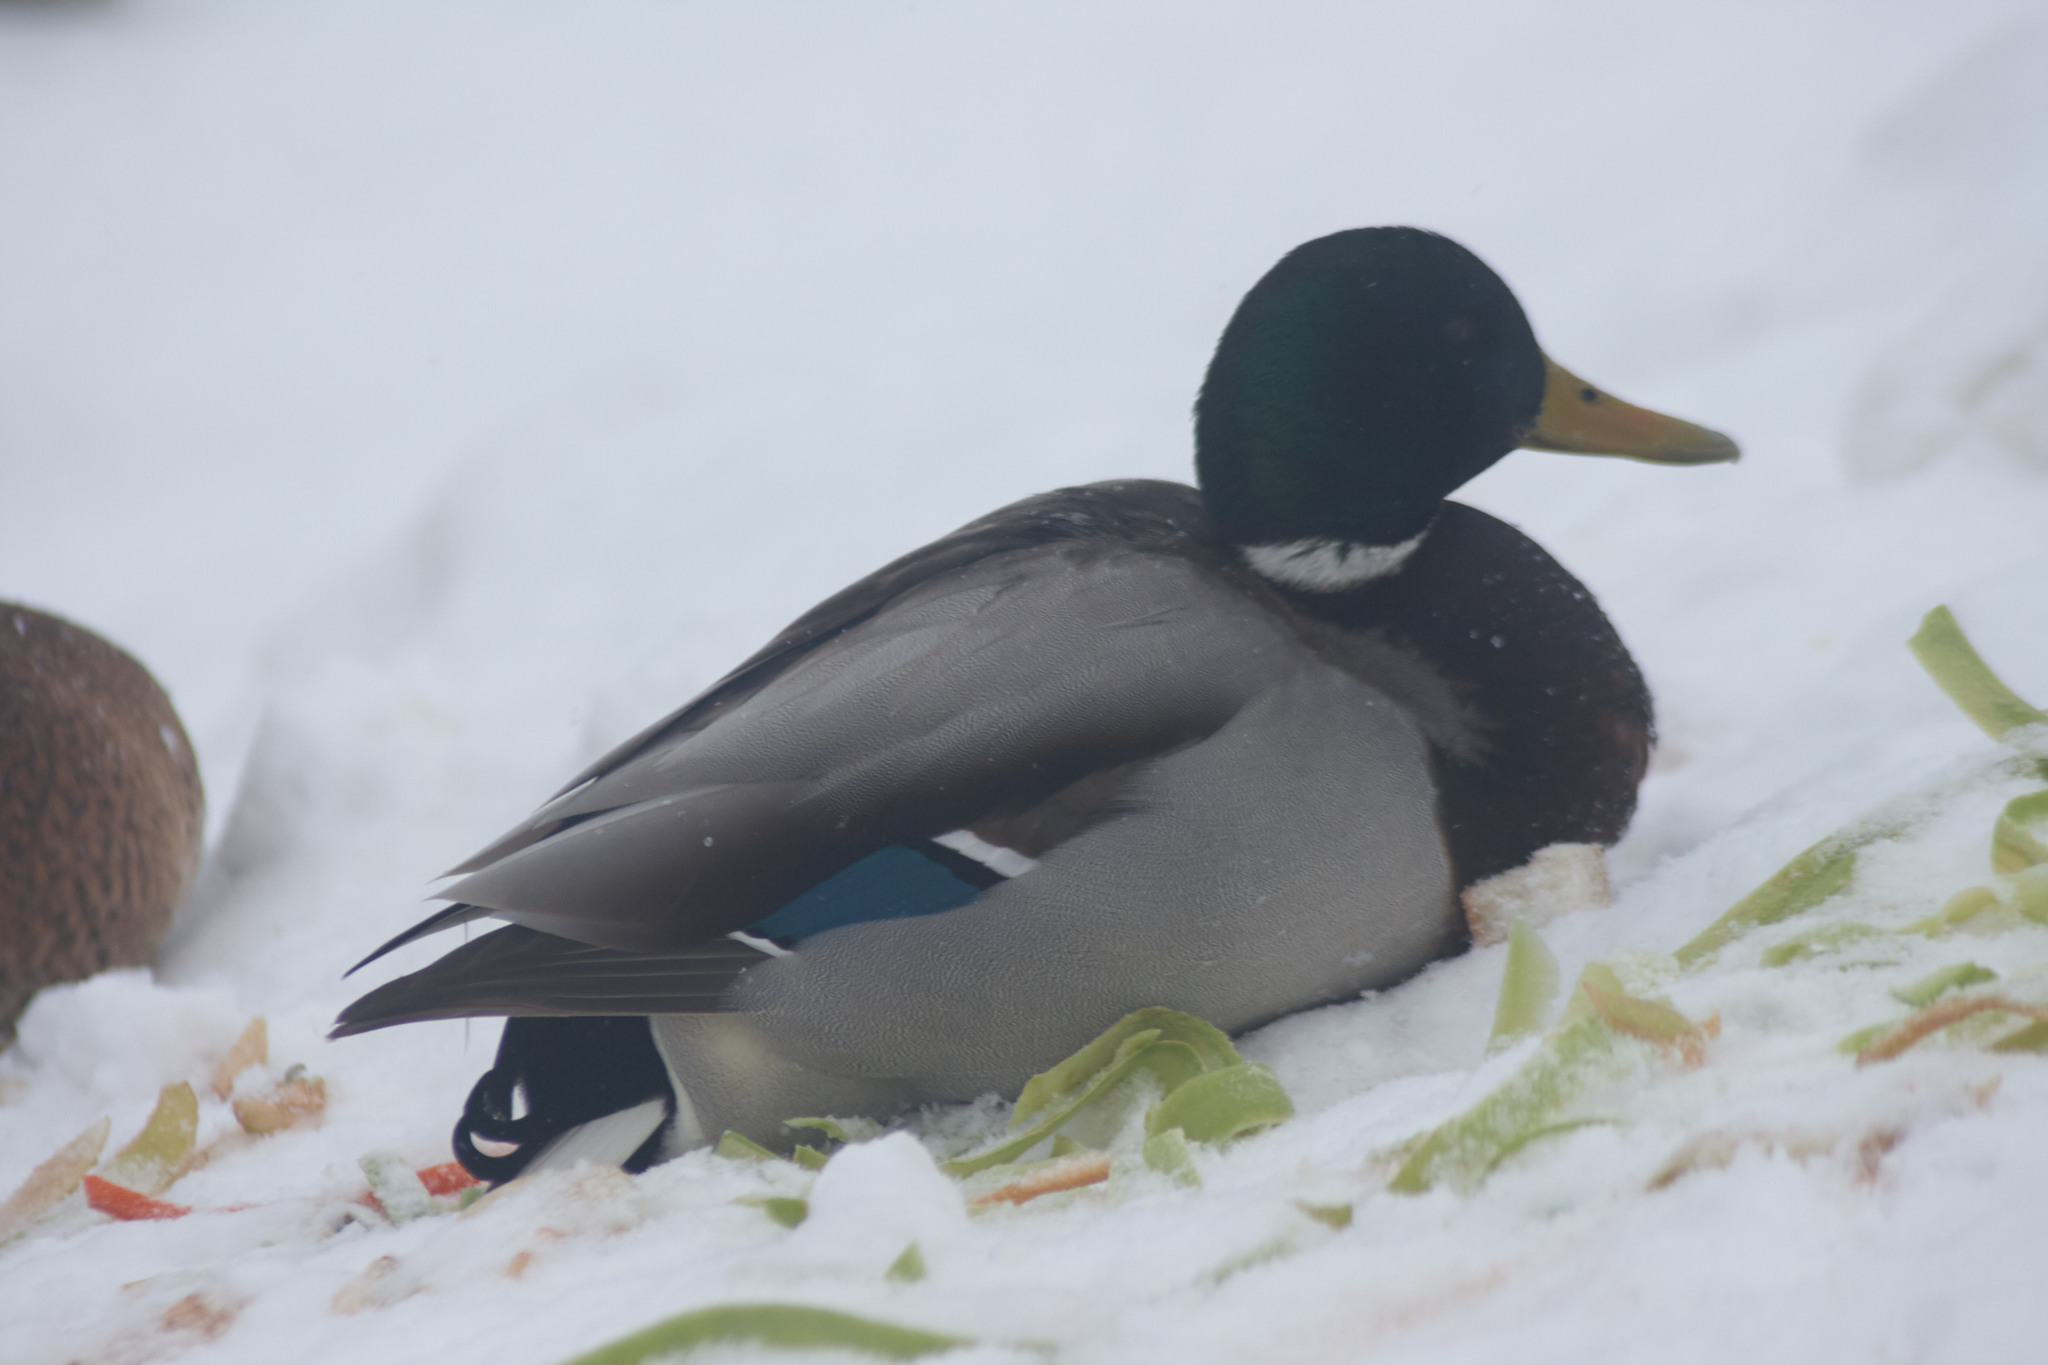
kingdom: Animalia
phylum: Chordata
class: Aves
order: Anseriformes
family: Anatidae
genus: Anas
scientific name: Anas platyrhynchos
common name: Mallard
